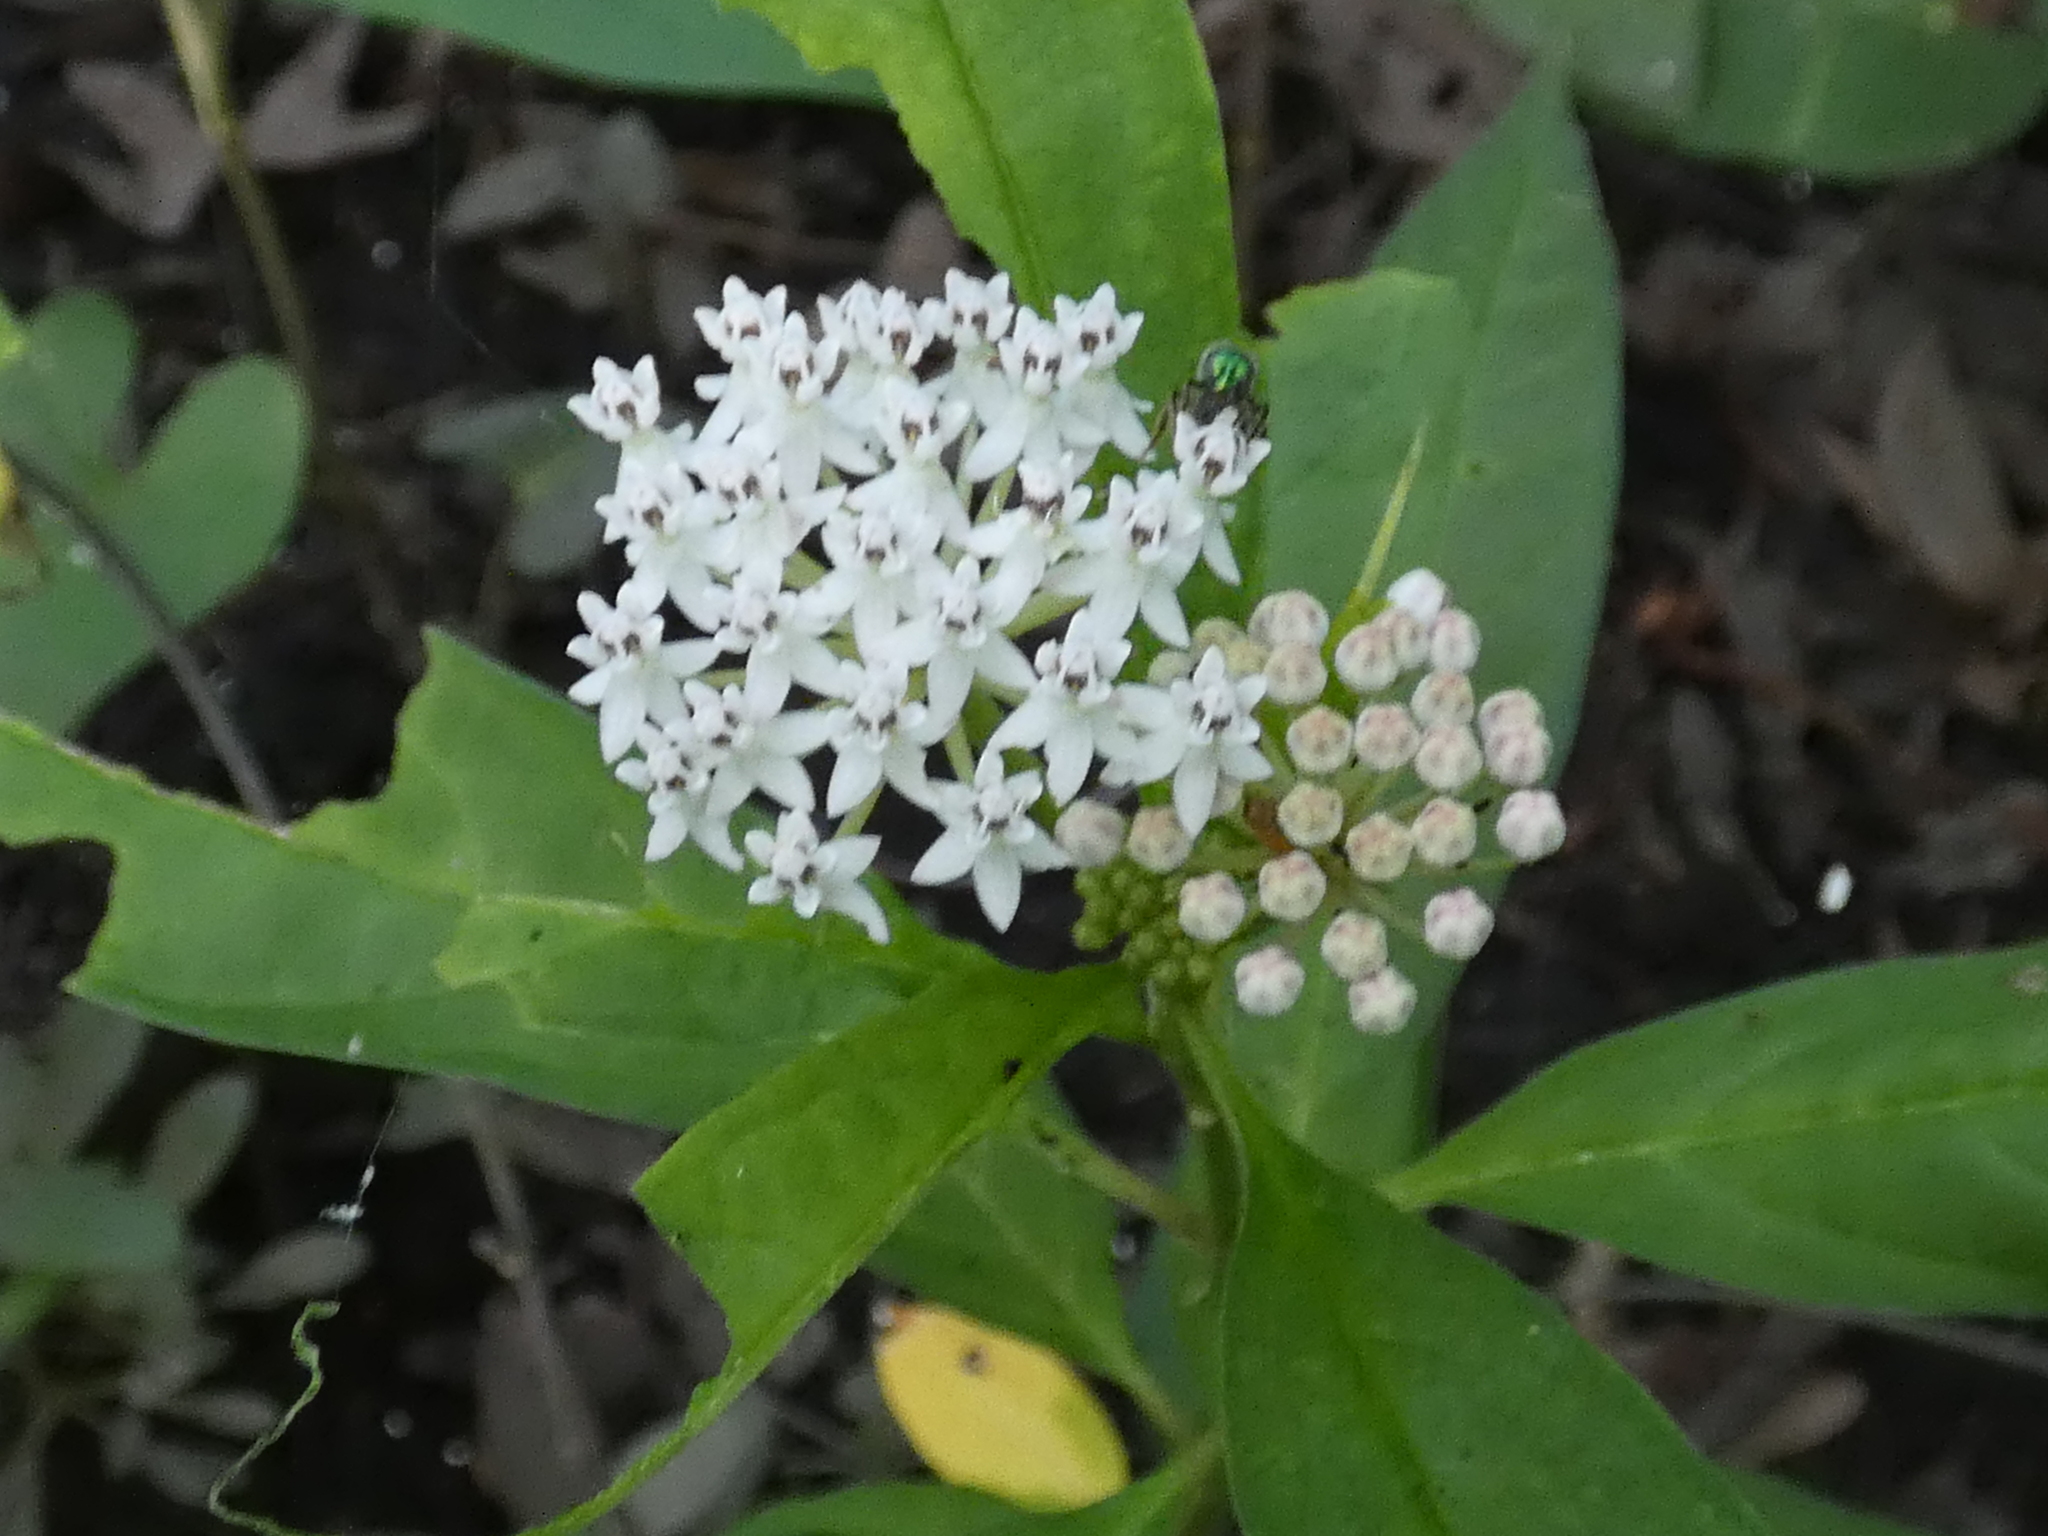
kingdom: Plantae
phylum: Tracheophyta
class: Magnoliopsida
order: Gentianales
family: Apocynaceae
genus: Asclepias
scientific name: Asclepias perennis
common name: Smooth-seed milkweed
